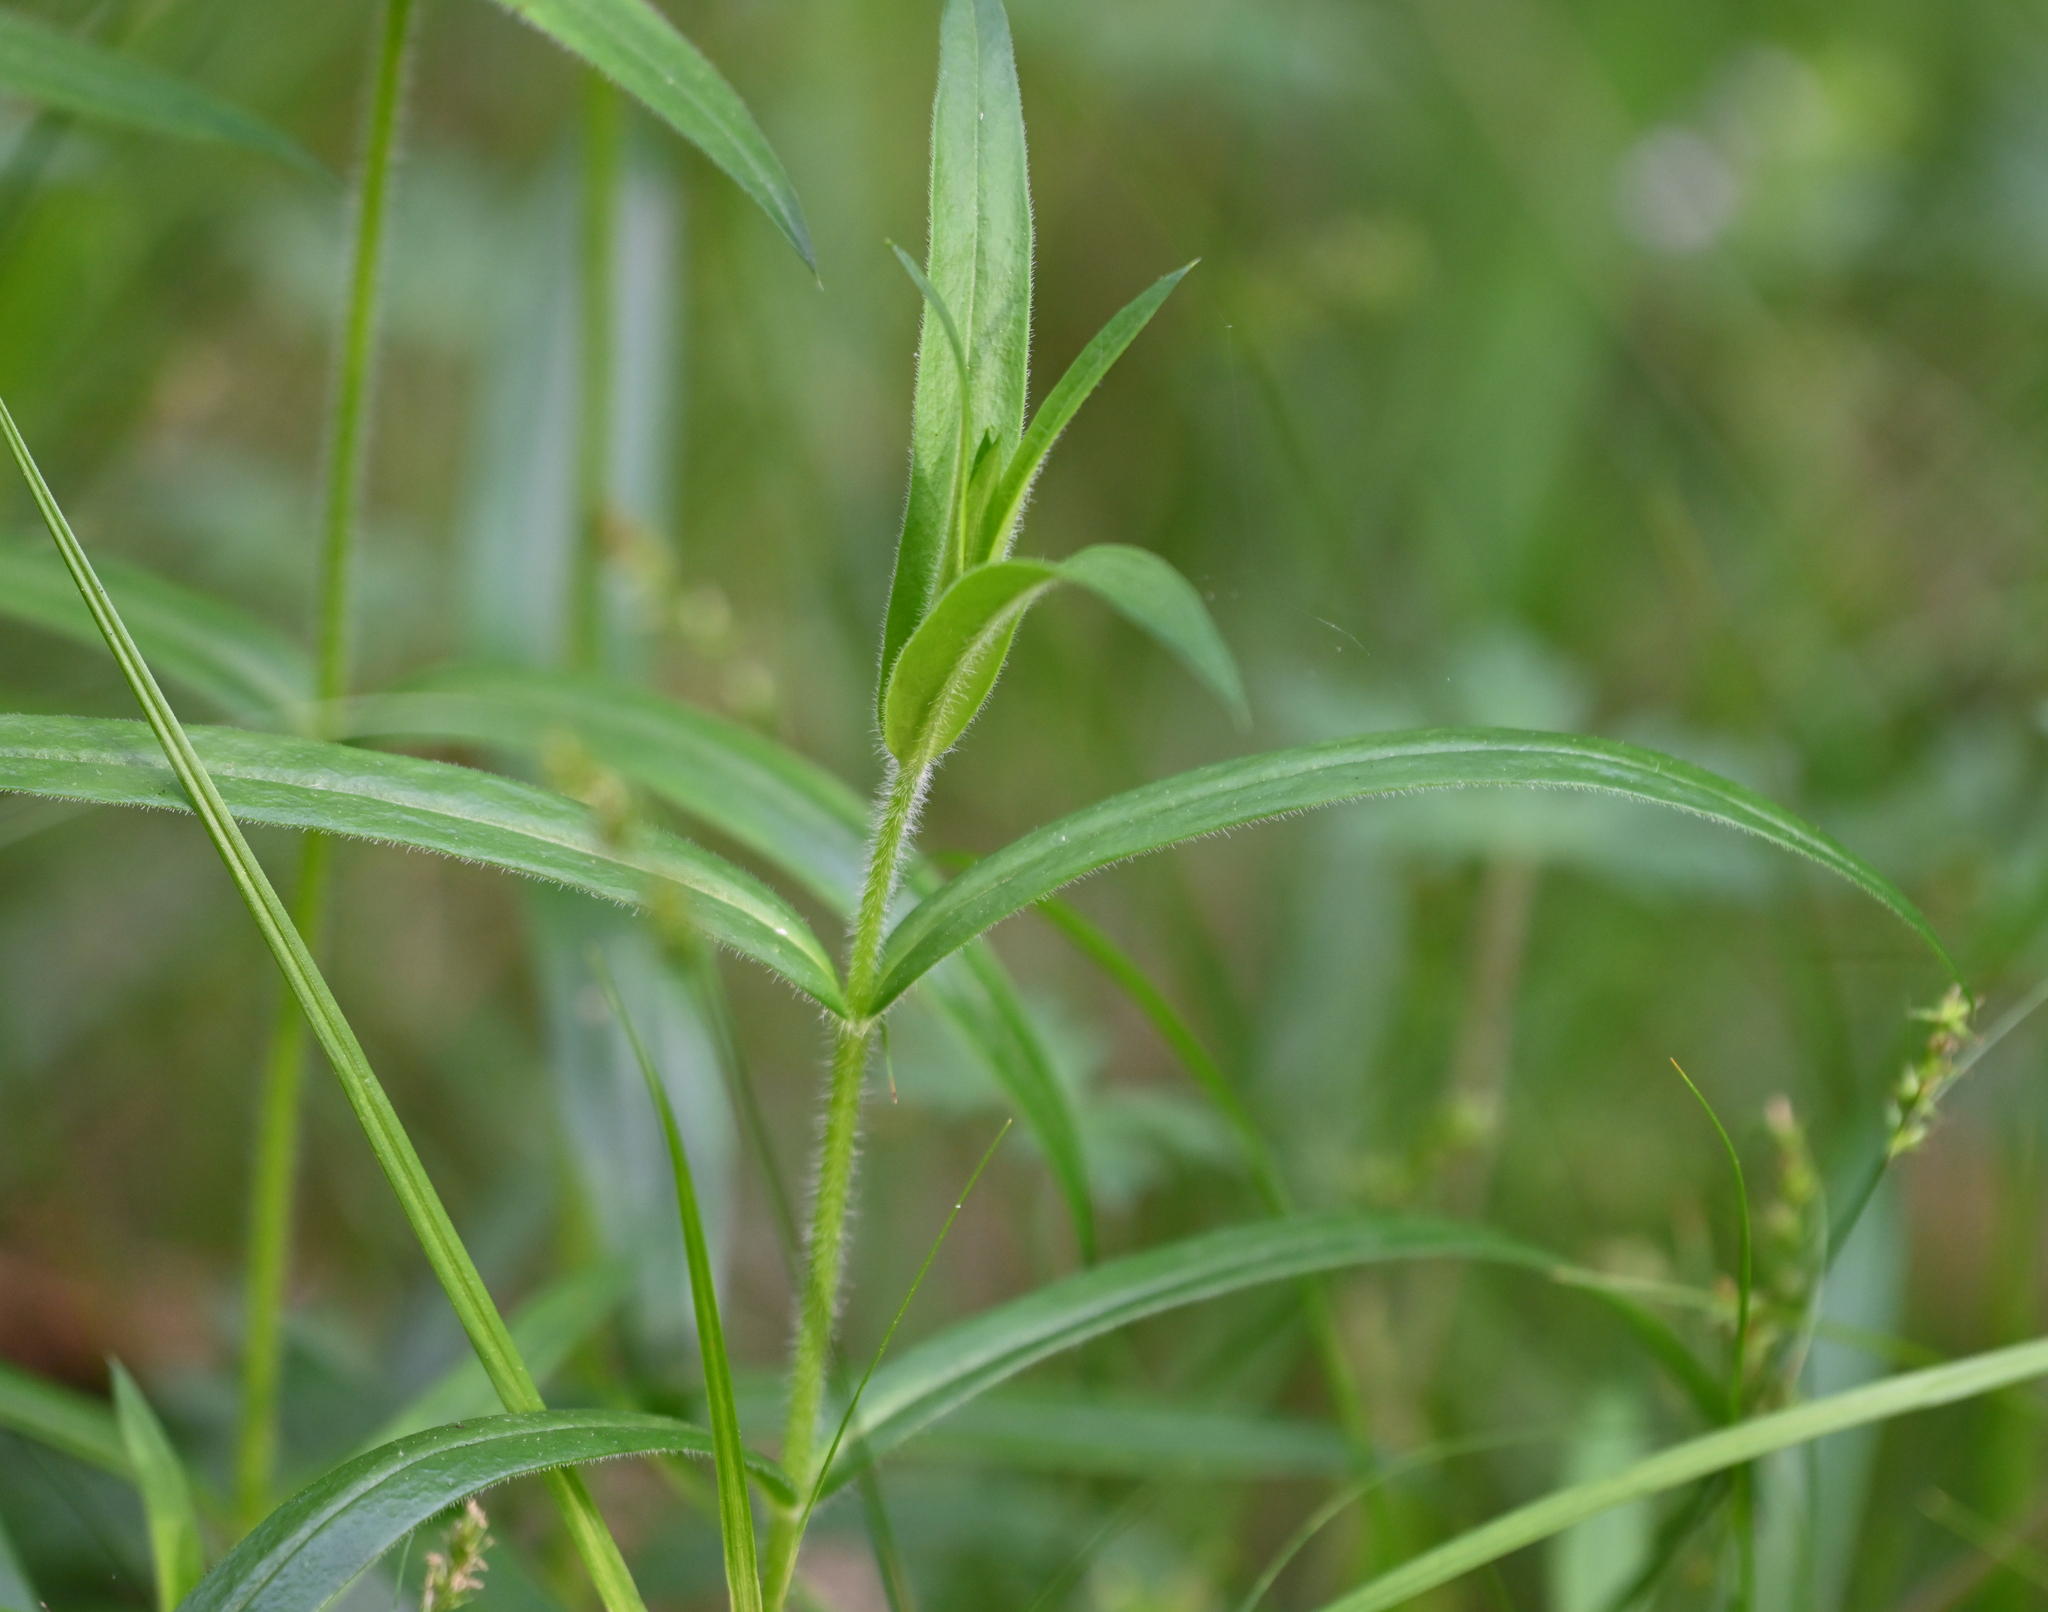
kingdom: Plantae
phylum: Tracheophyta
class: Magnoliopsida
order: Ericales
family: Polemoniaceae
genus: Phlox
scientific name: Phlox pilosa
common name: Prairie phlox
